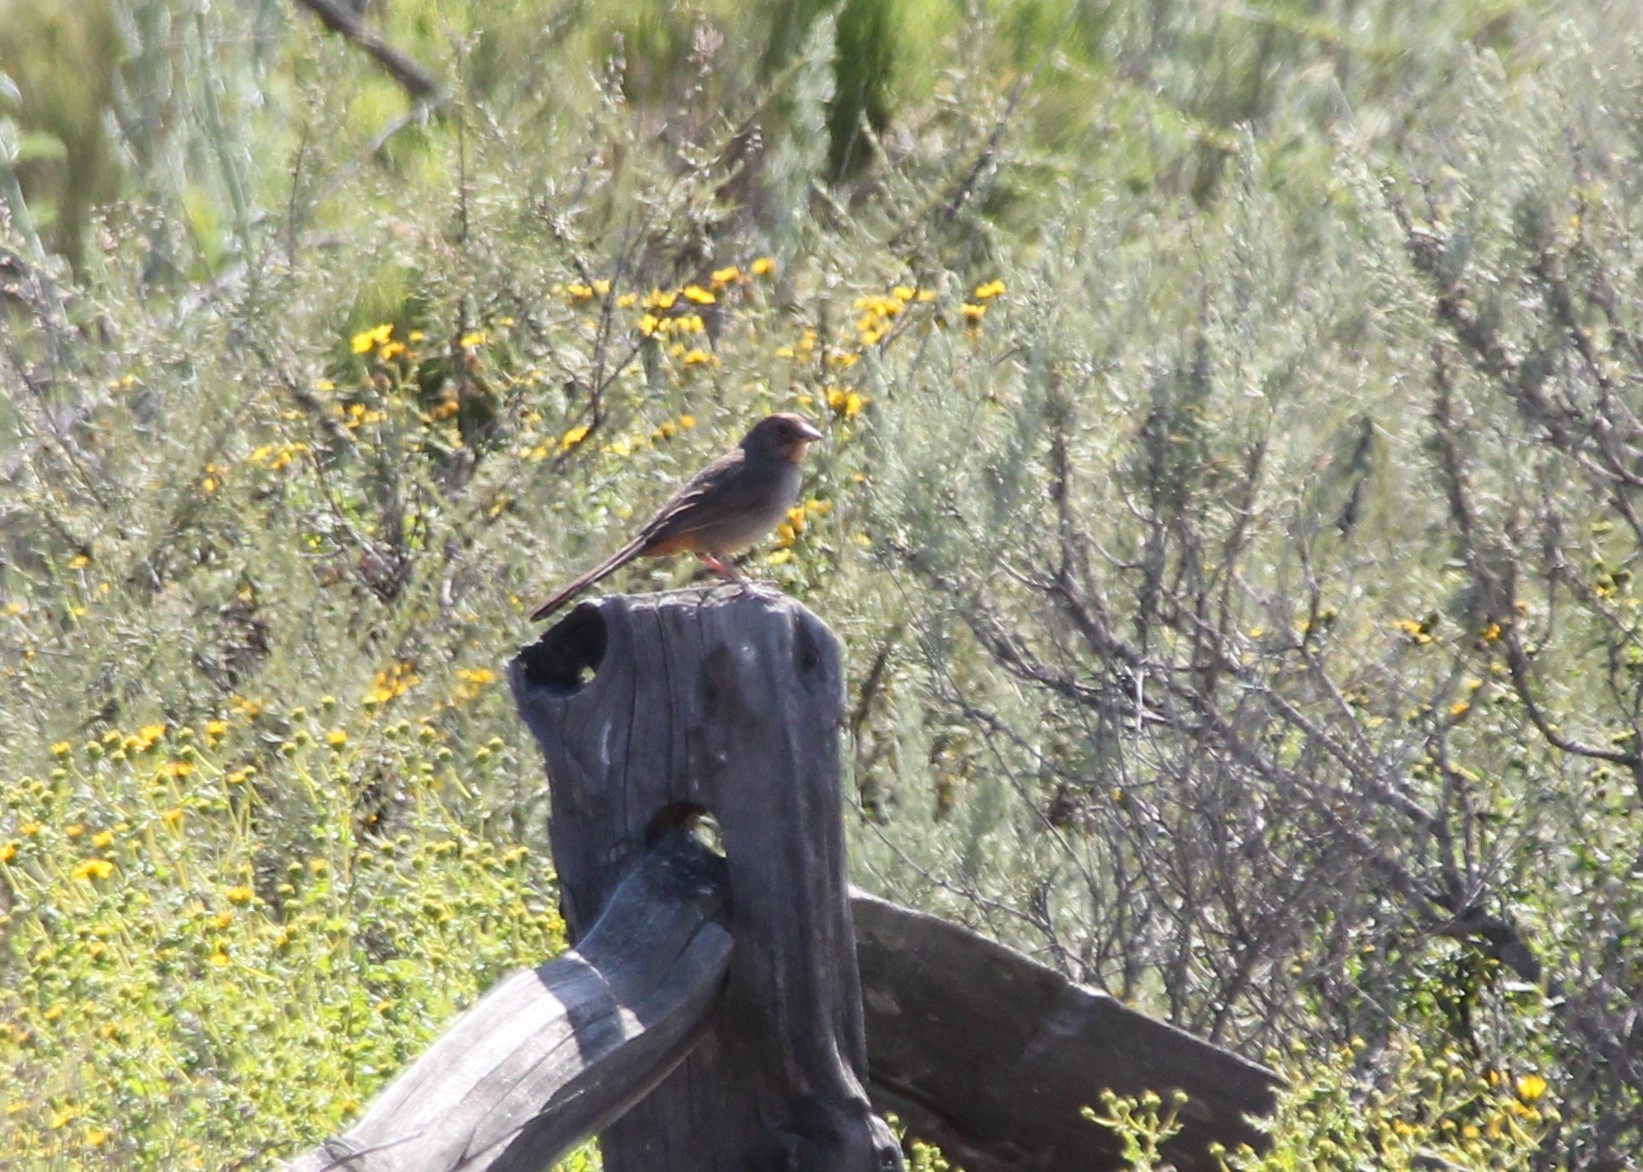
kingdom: Animalia
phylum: Chordata
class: Aves
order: Passeriformes
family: Passerellidae
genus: Melozone
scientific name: Melozone crissalis
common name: California towhee
